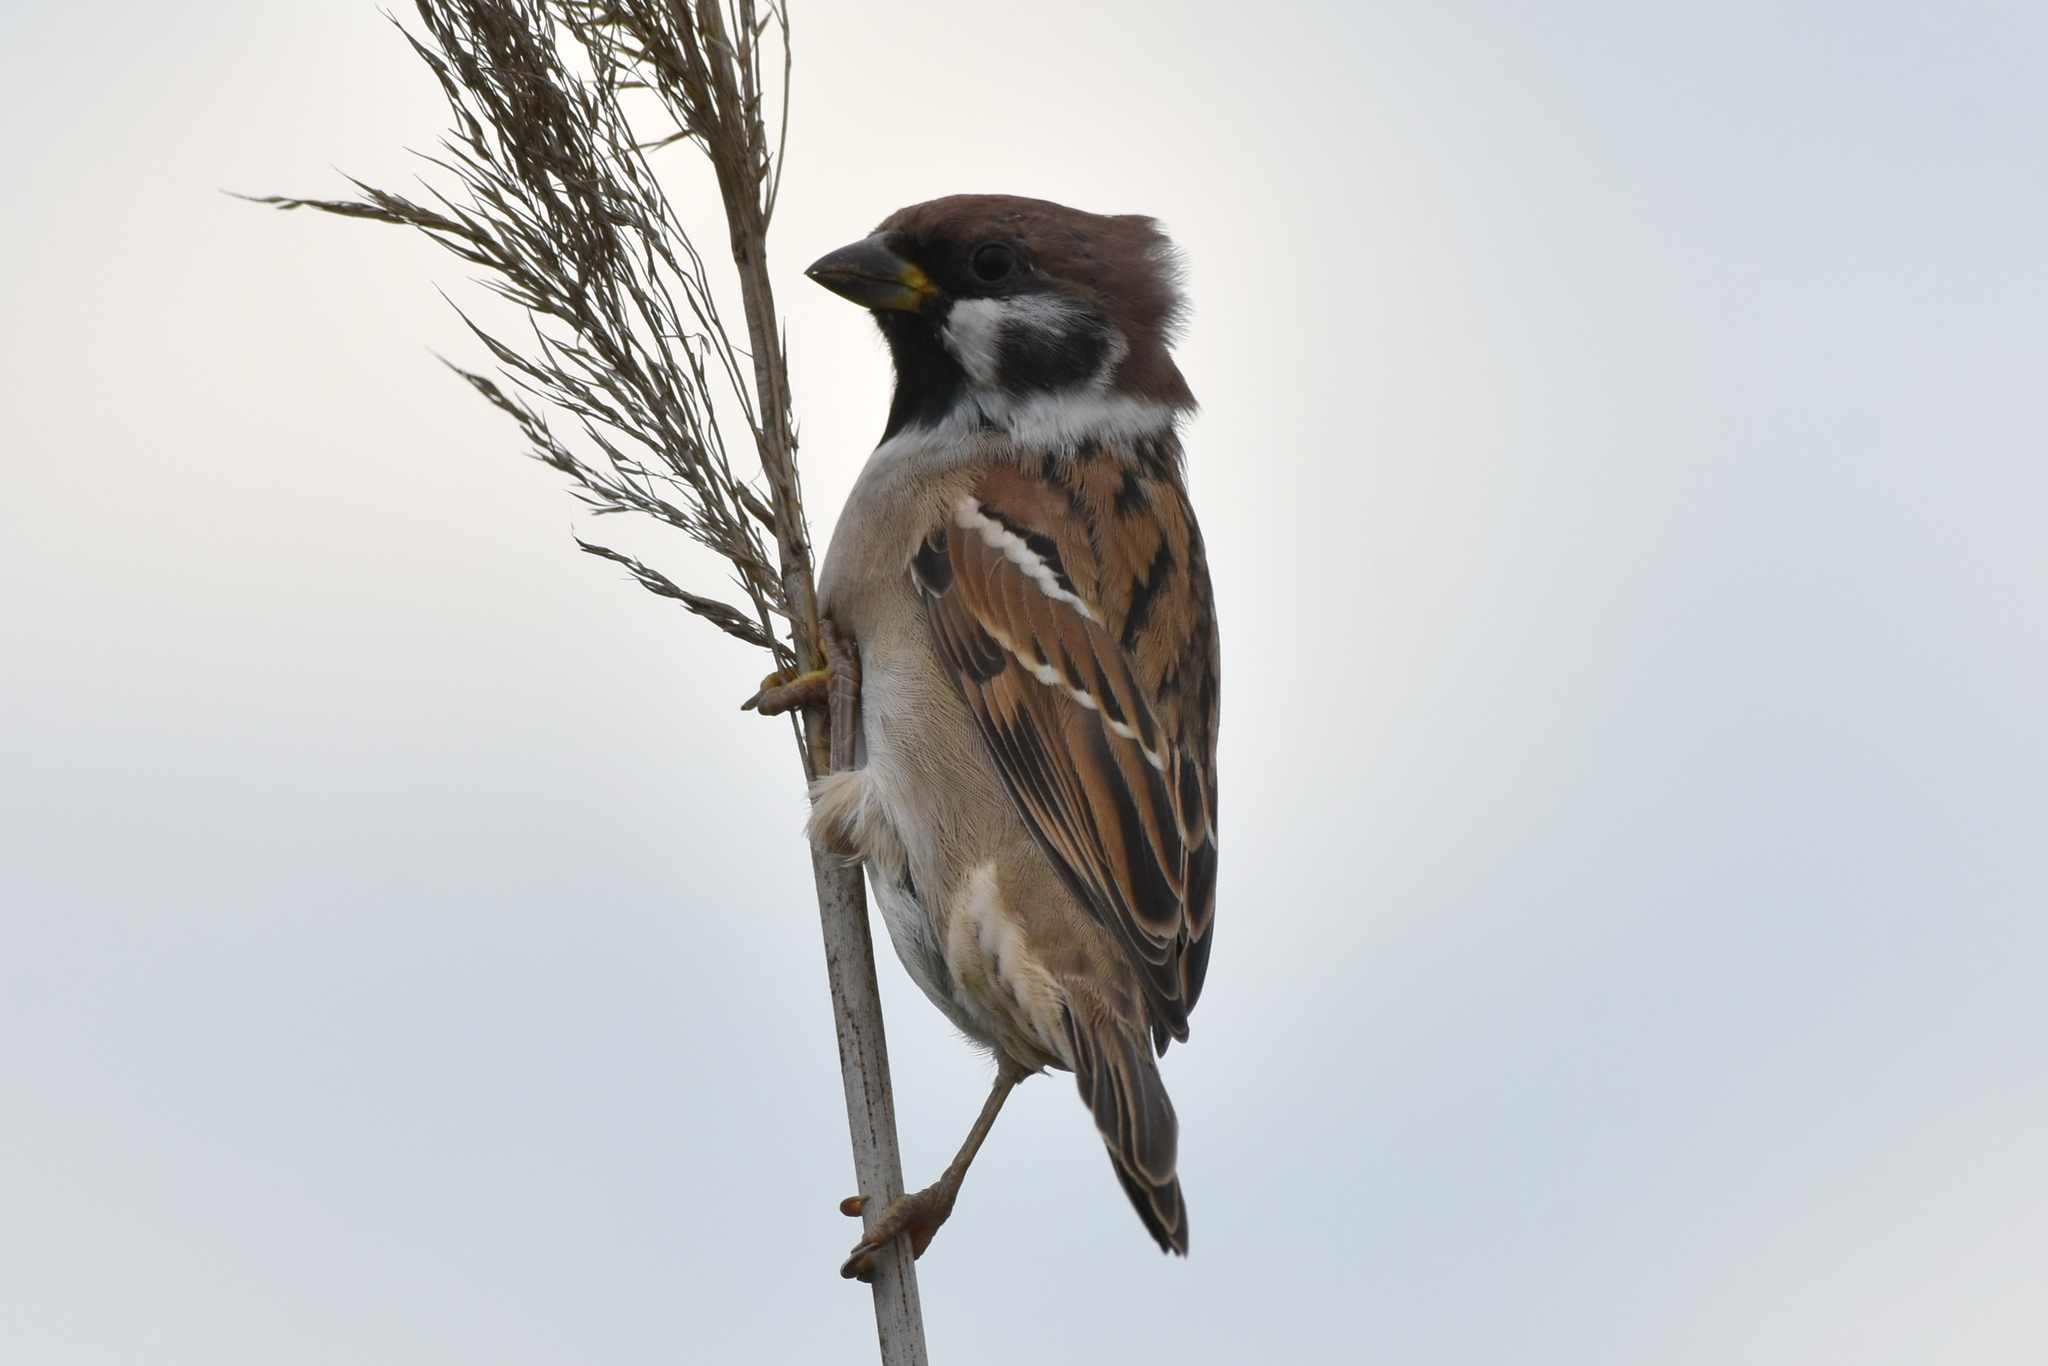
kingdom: Animalia
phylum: Chordata
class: Aves
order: Passeriformes
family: Passeridae
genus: Passer
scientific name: Passer montanus
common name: Eurasian tree sparrow
